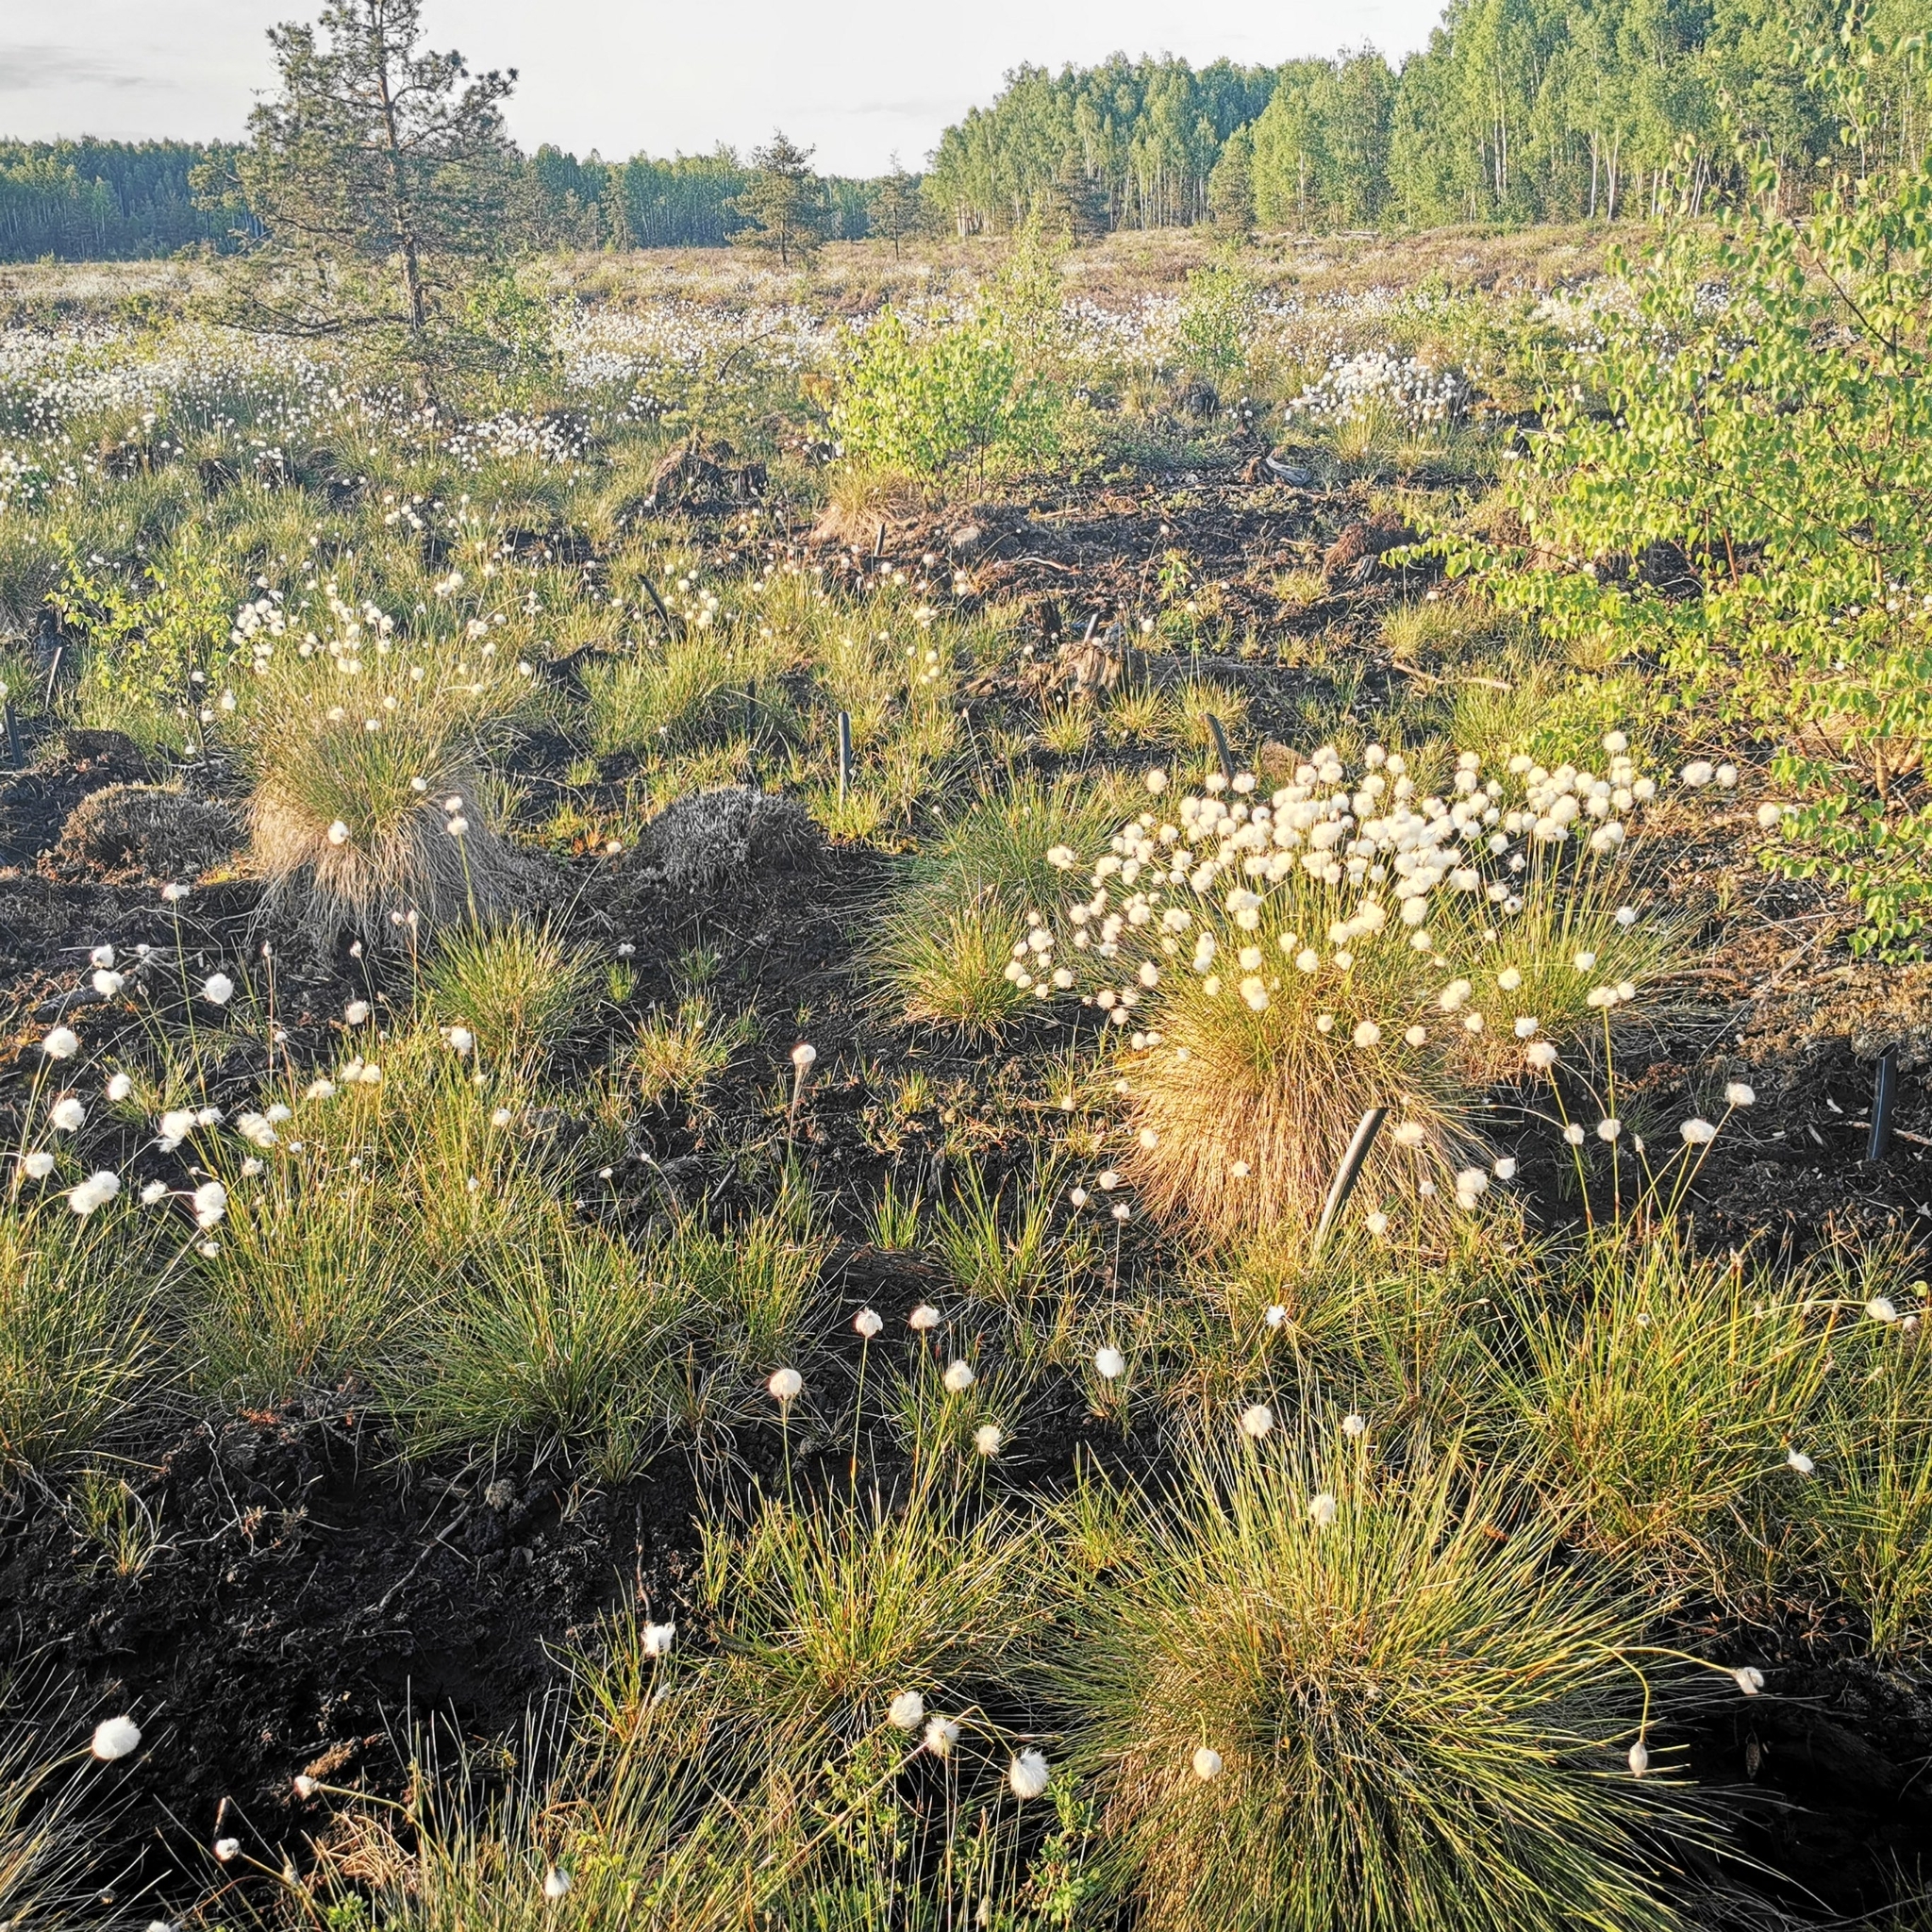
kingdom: Plantae
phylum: Tracheophyta
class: Liliopsida
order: Poales
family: Cyperaceae
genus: Eriophorum
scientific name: Eriophorum vaginatum
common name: Hare's-tail cottongrass
